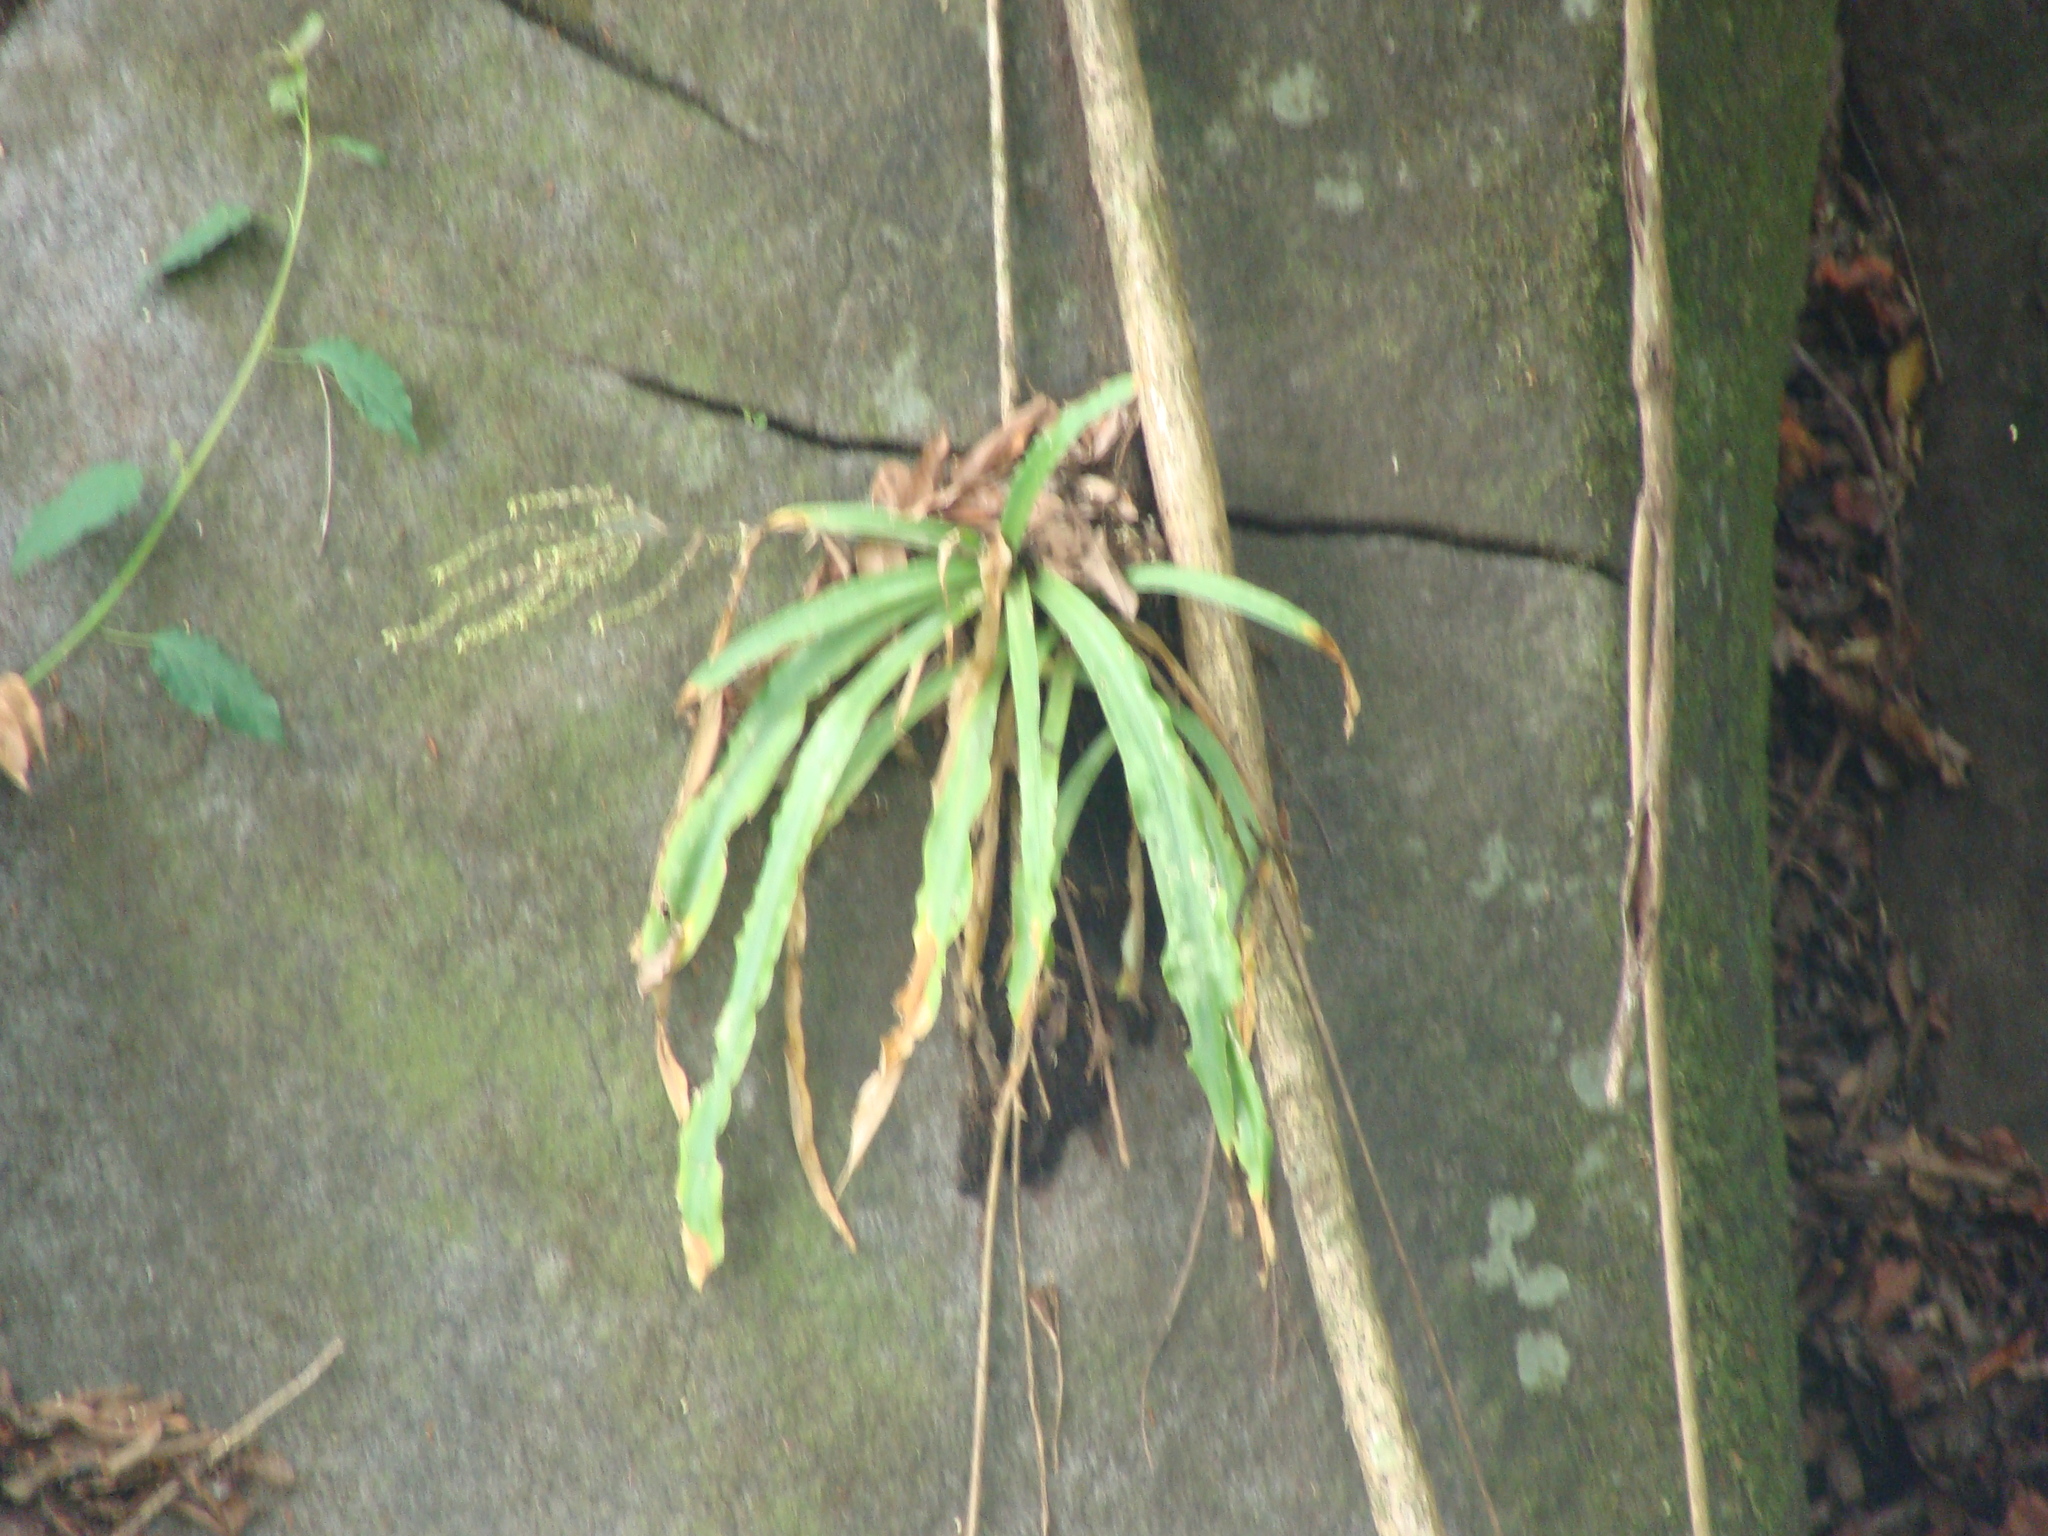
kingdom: Plantae
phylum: Tracheophyta
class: Liliopsida
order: Poales
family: Bromeliaceae
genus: Fosterella
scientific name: Fosterella micrantha
